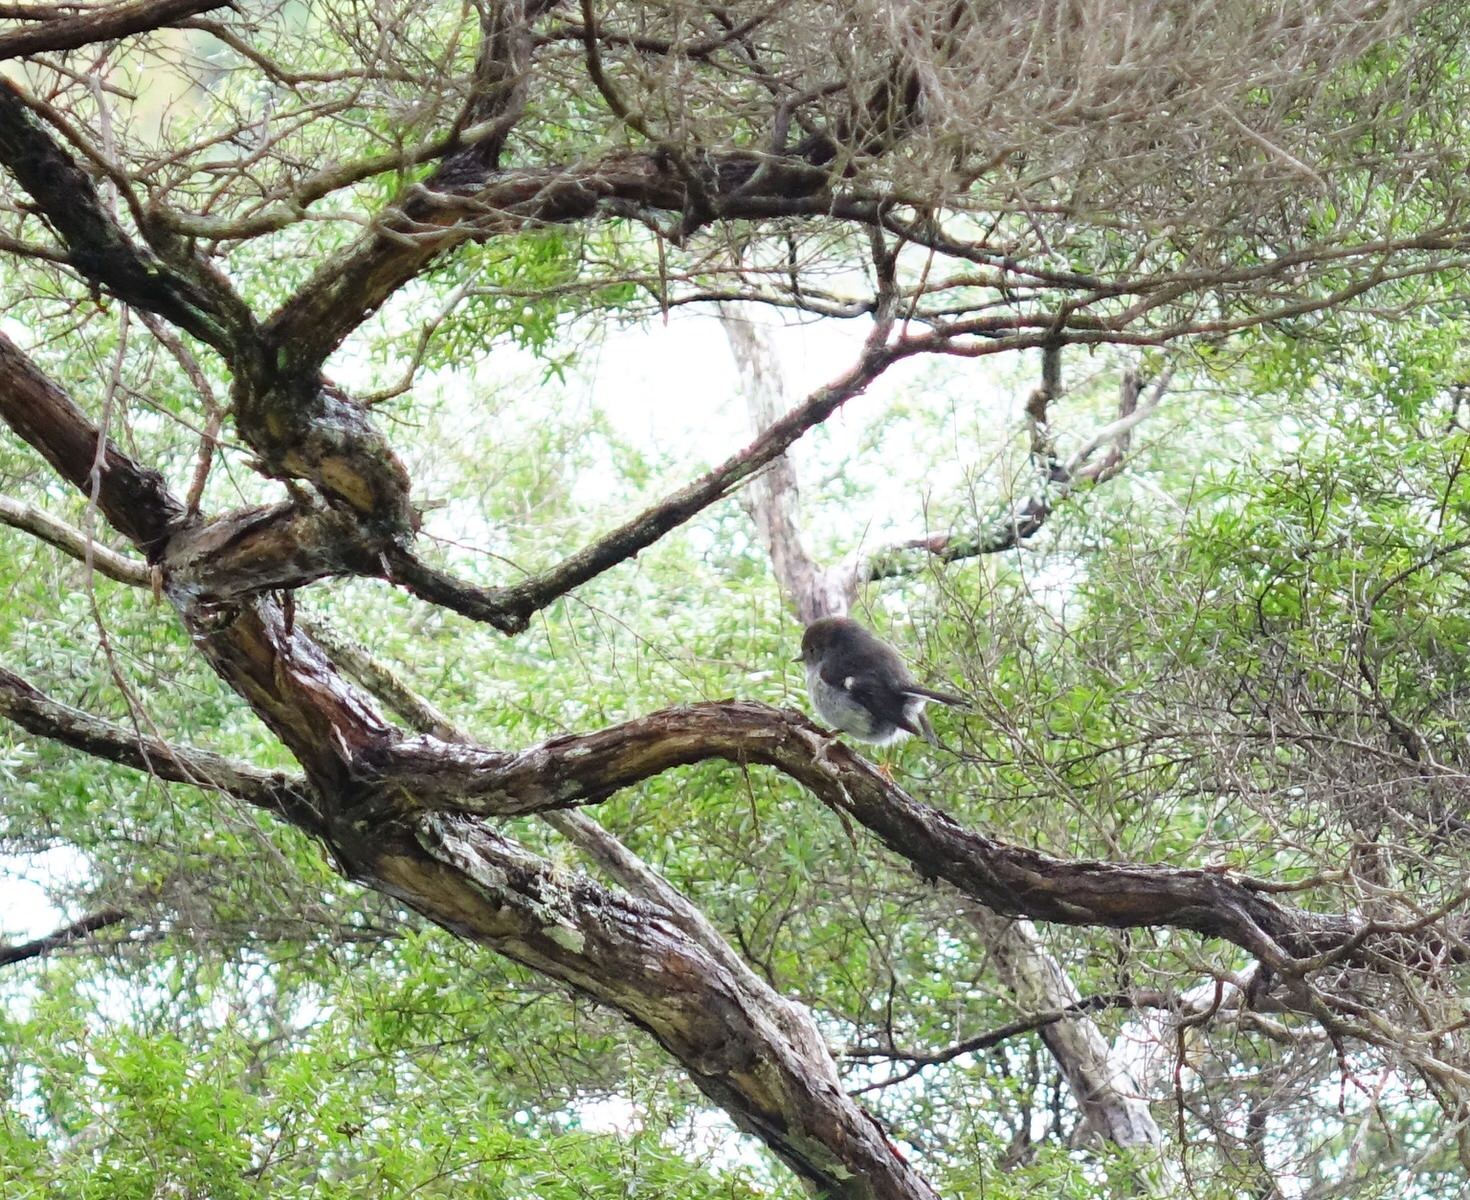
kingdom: Animalia
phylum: Chordata
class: Aves
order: Passeriformes
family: Petroicidae
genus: Petroica
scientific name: Petroica macrocephala
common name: Tomtit
